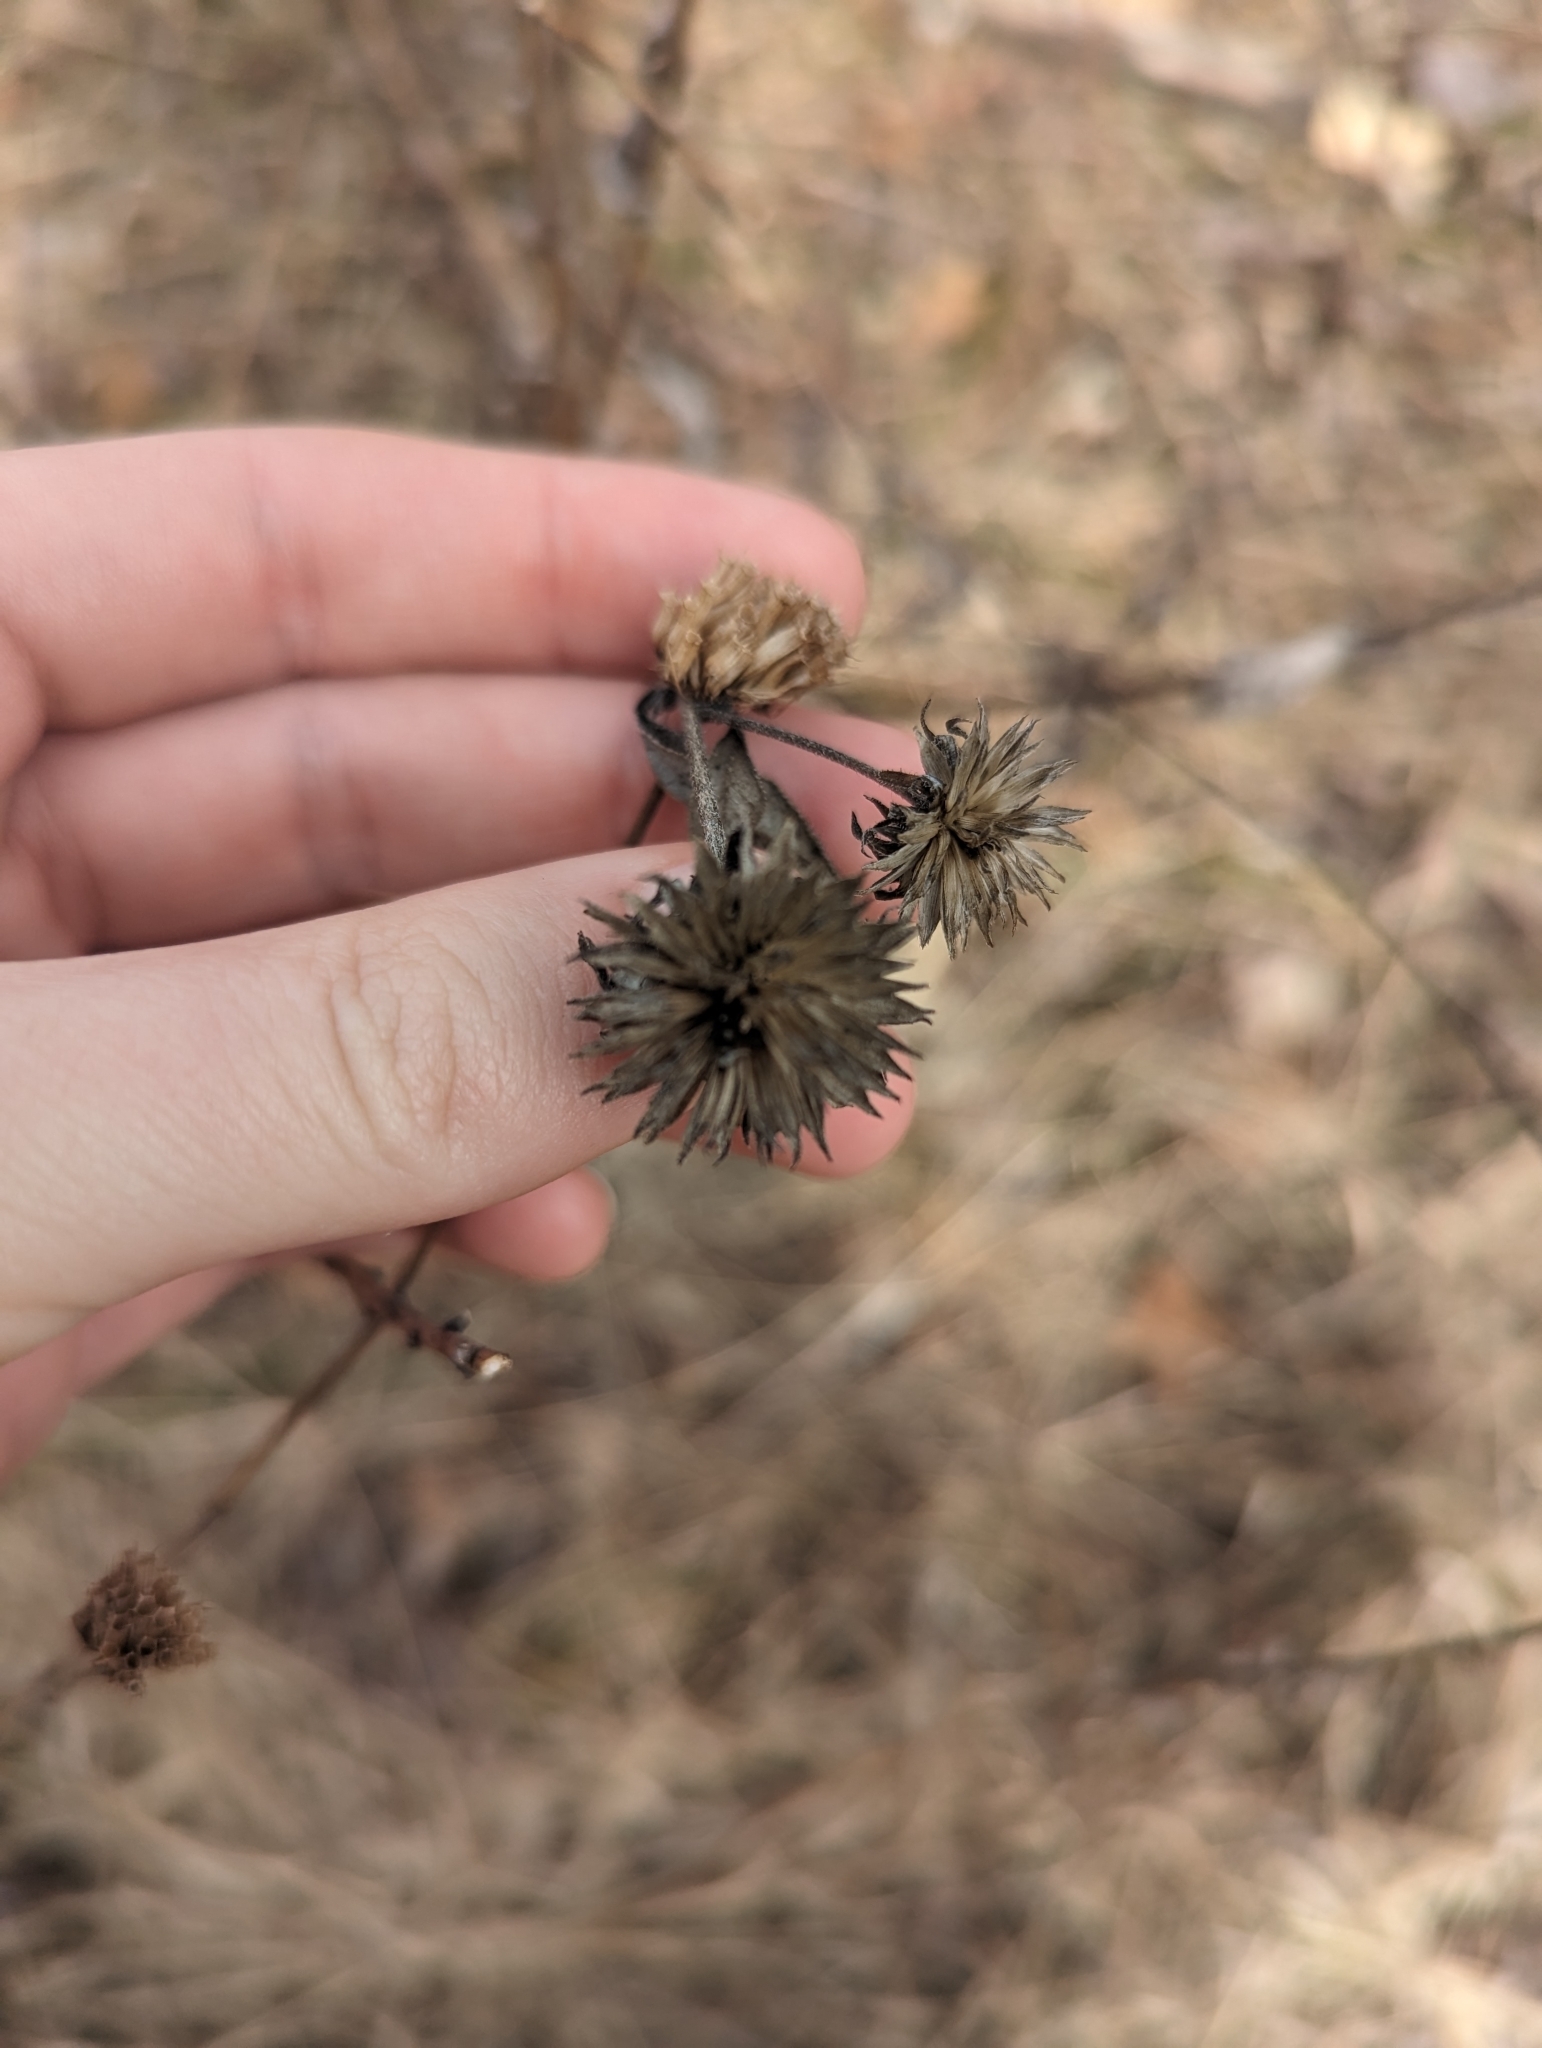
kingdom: Plantae
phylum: Tracheophyta
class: Magnoliopsida
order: Asterales
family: Asteraceae
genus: Verbesina
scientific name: Verbesina alternifolia
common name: Wingstem
